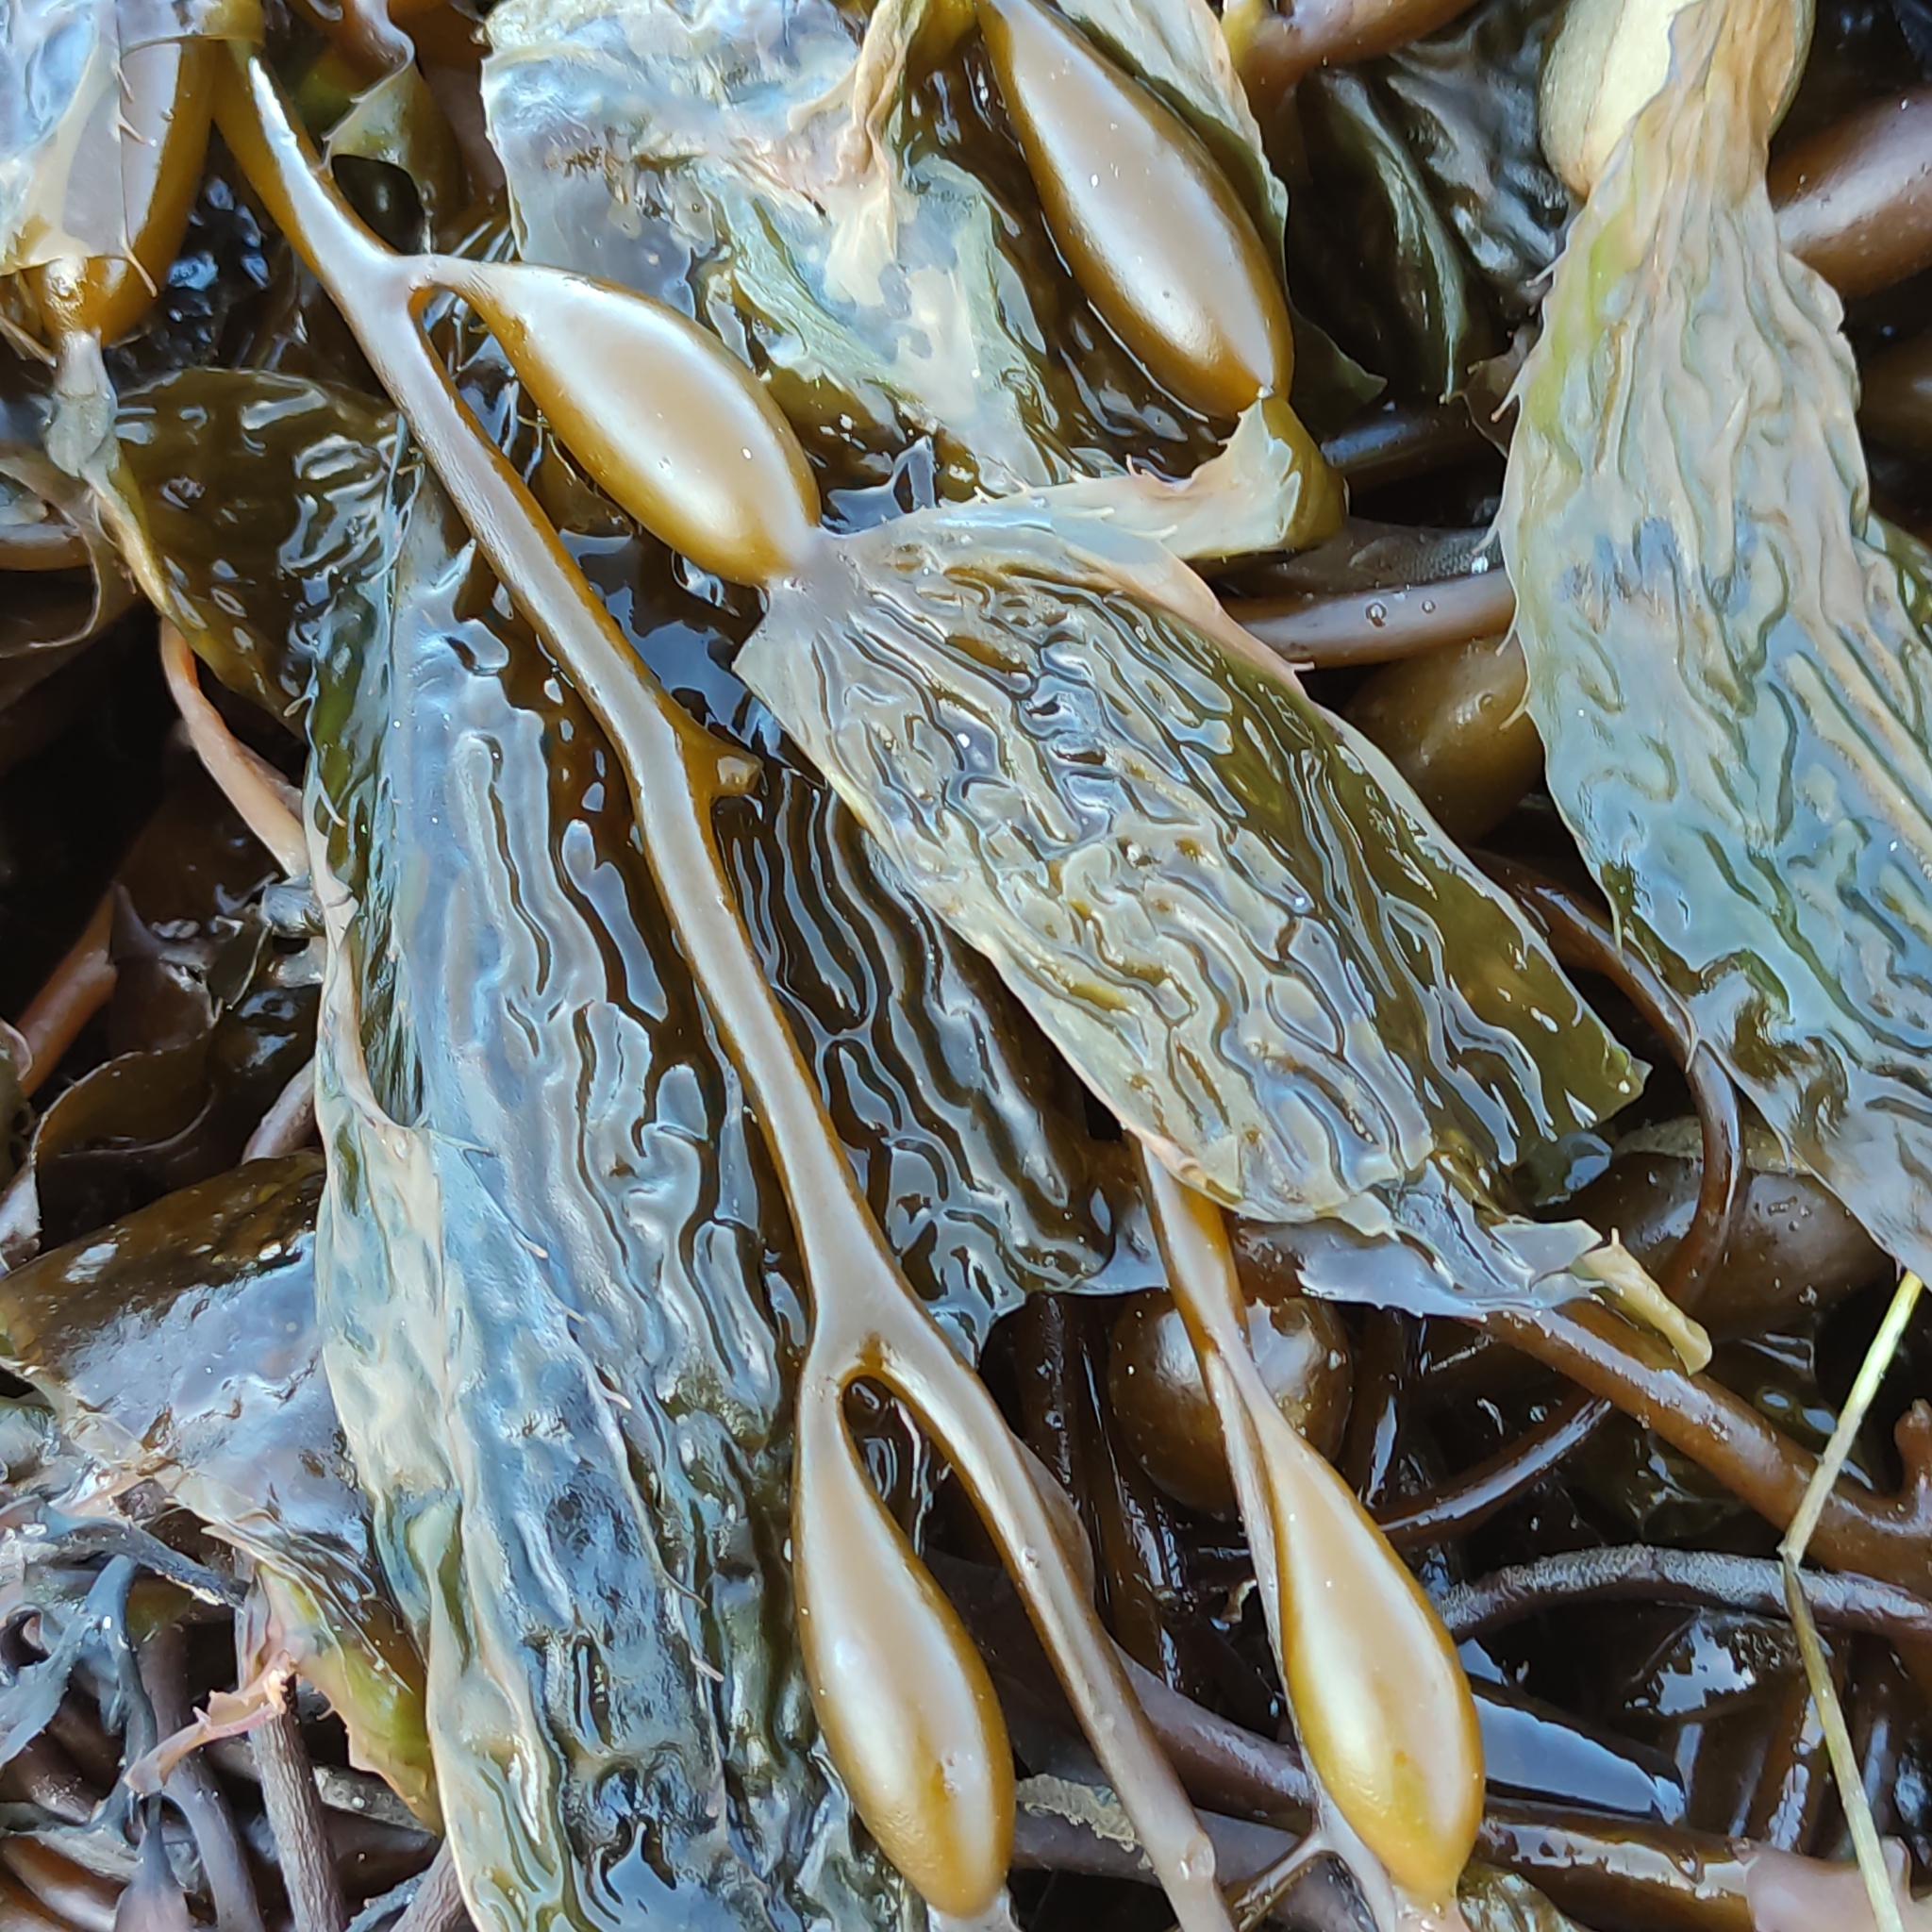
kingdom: Chromista
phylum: Ochrophyta
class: Phaeophyceae
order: Laminariales
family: Laminariaceae
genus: Macrocystis
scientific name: Macrocystis pyrifera
